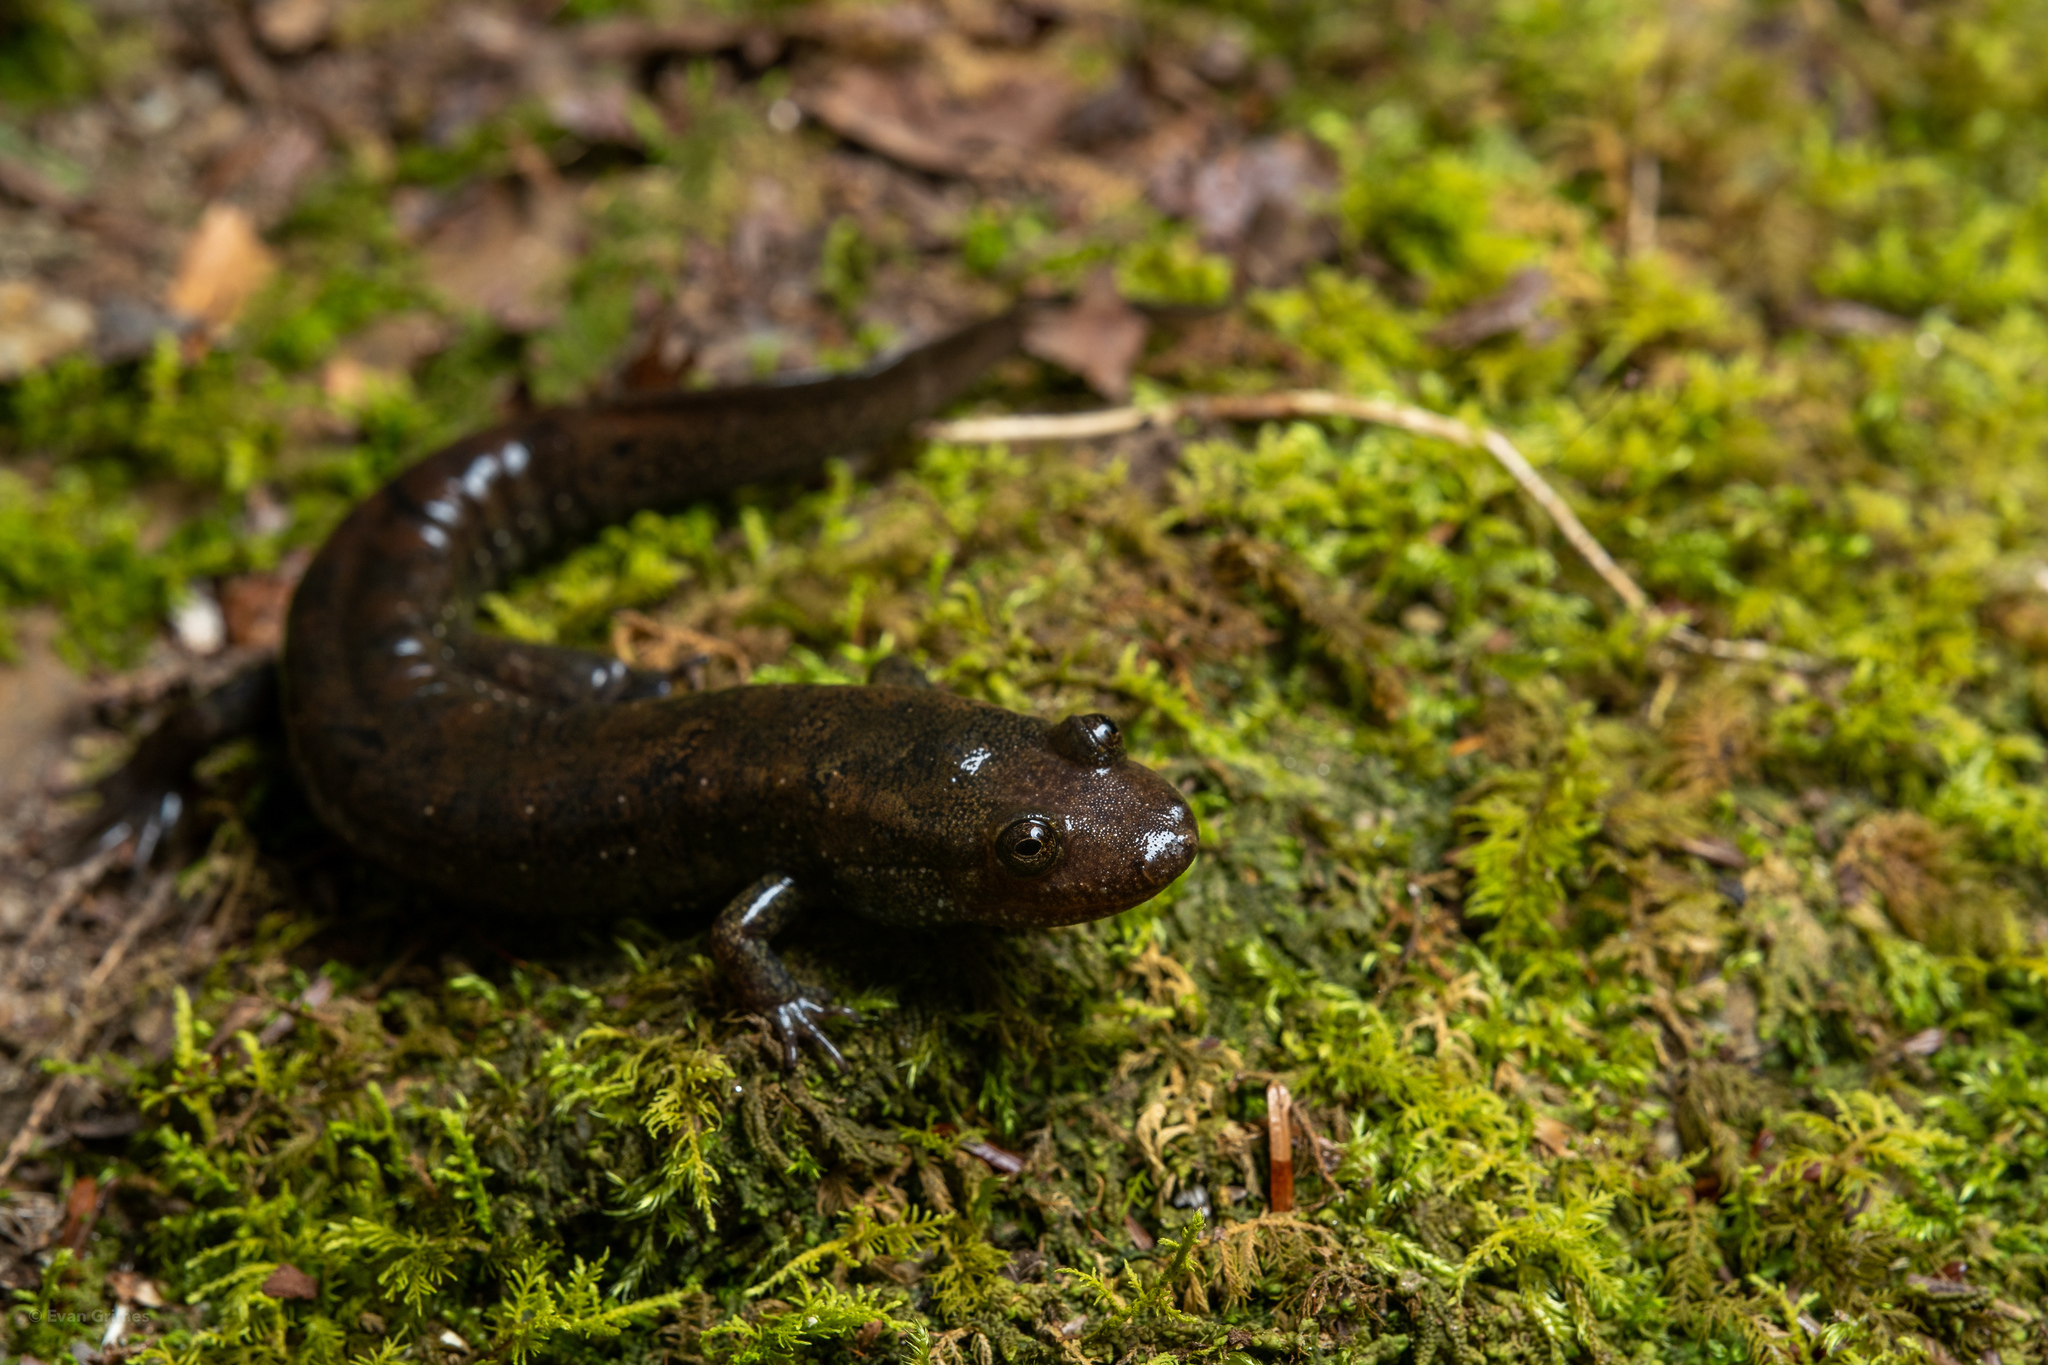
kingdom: Animalia
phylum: Chordata
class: Amphibia
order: Caudata
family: Plethodontidae
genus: Desmognathus
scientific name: Desmognathus folkertsi
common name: Dwarf black-bellied salamander
